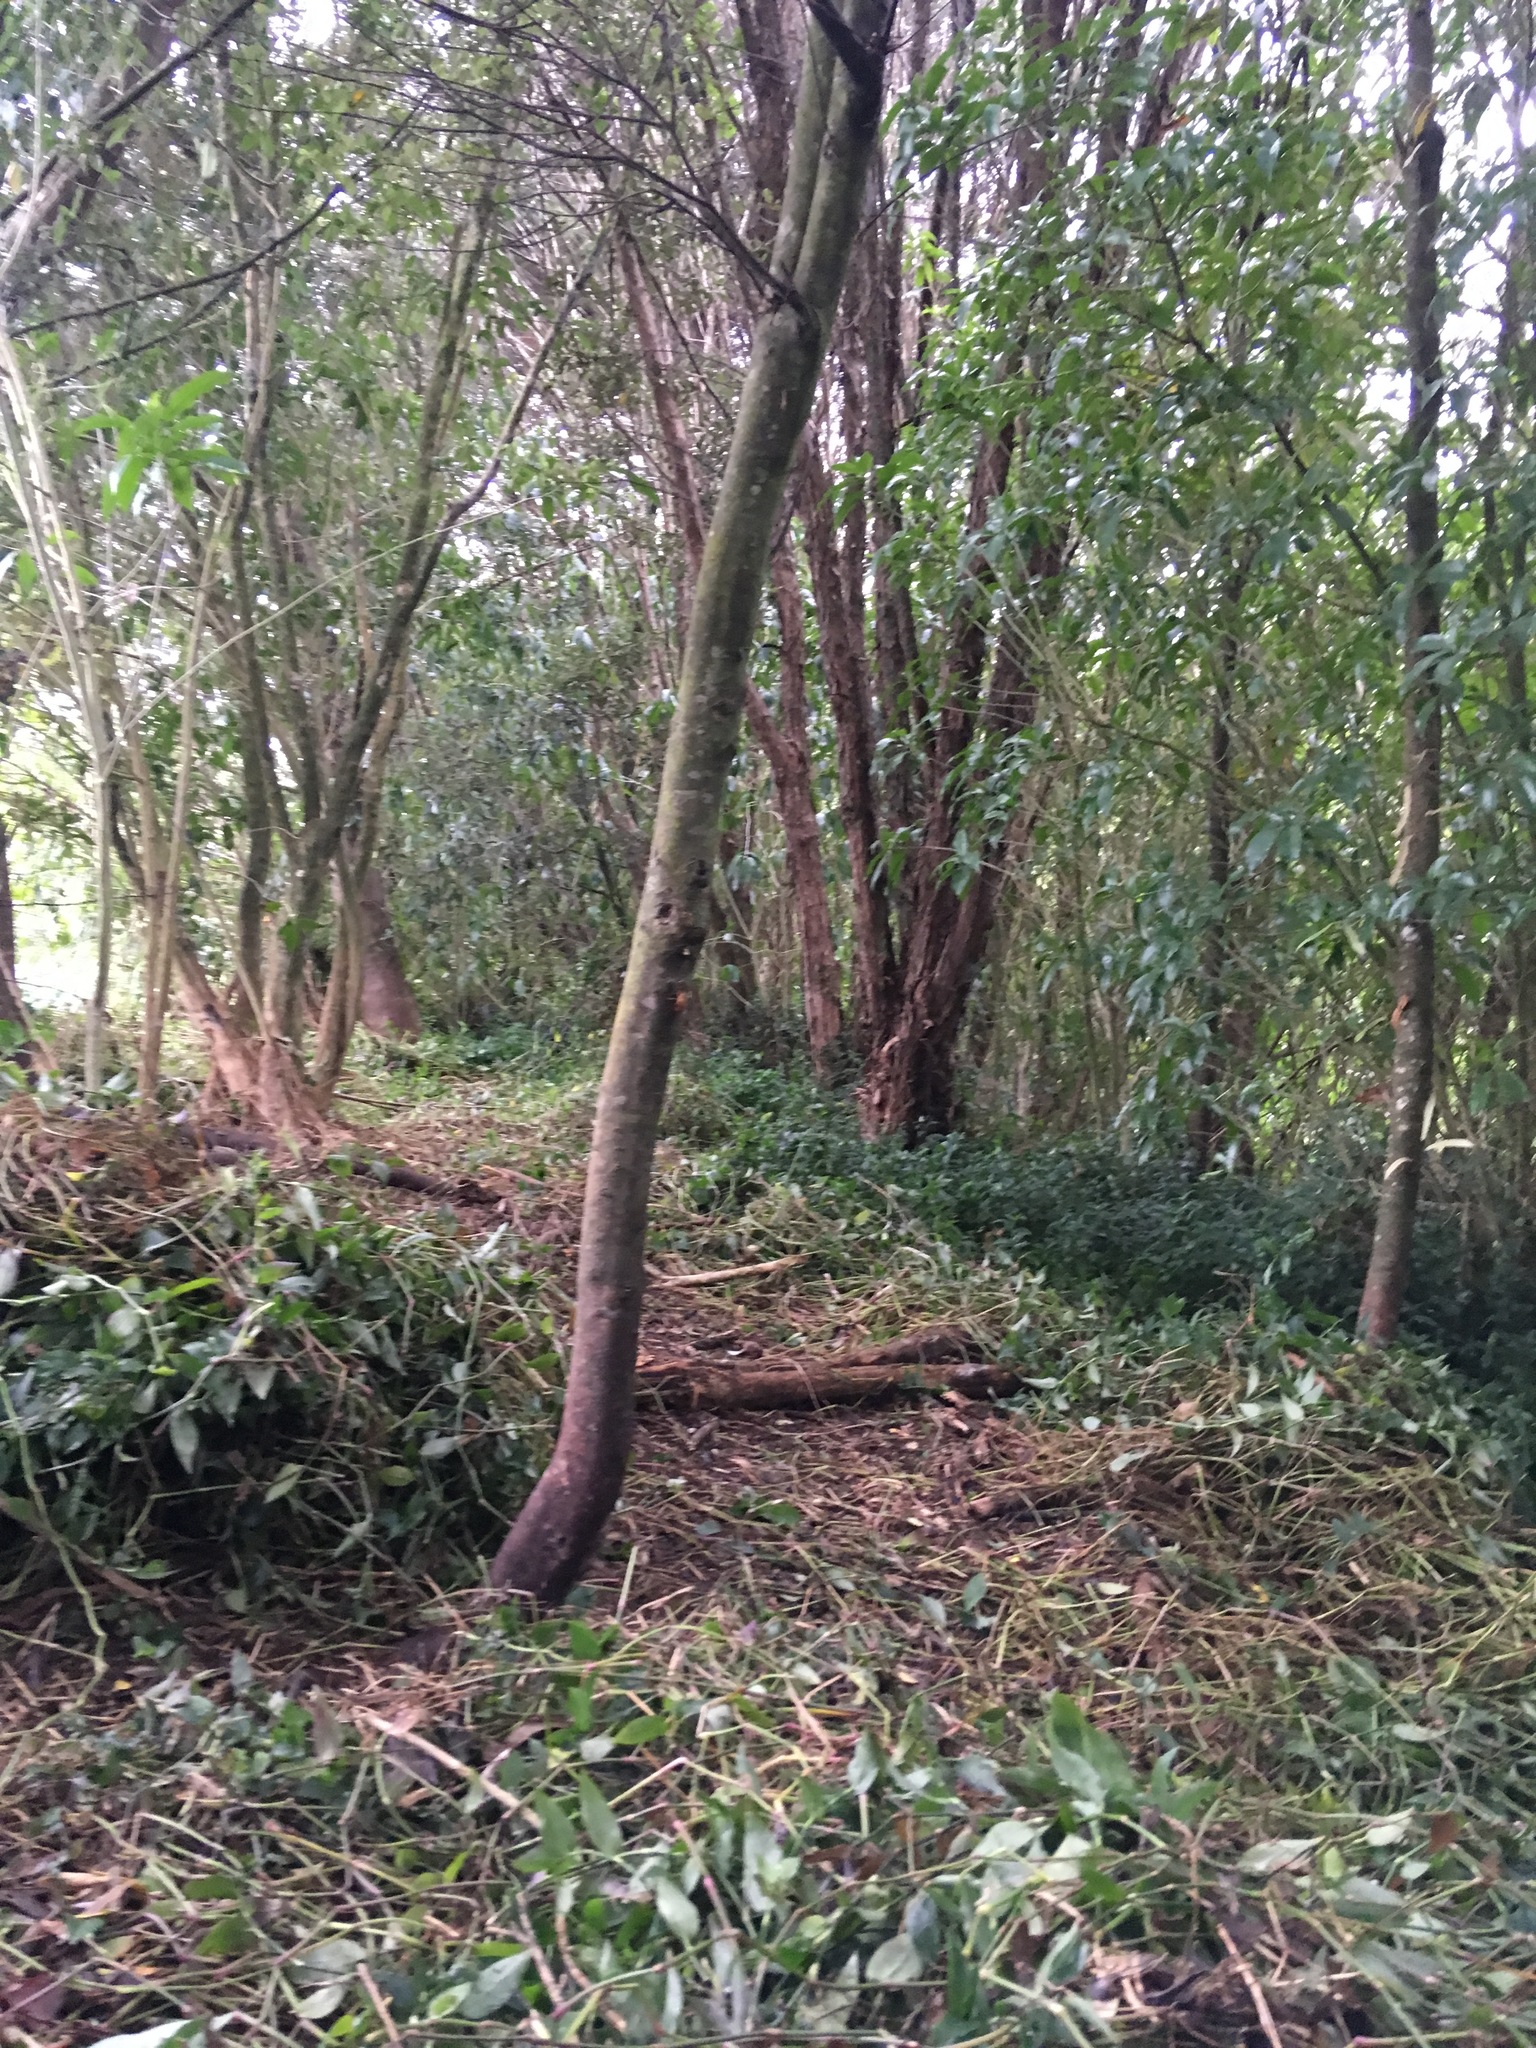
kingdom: Plantae
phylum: Tracheophyta
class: Liliopsida
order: Commelinales
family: Commelinaceae
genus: Tradescantia
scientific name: Tradescantia fluminensis
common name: Wandering-jew
